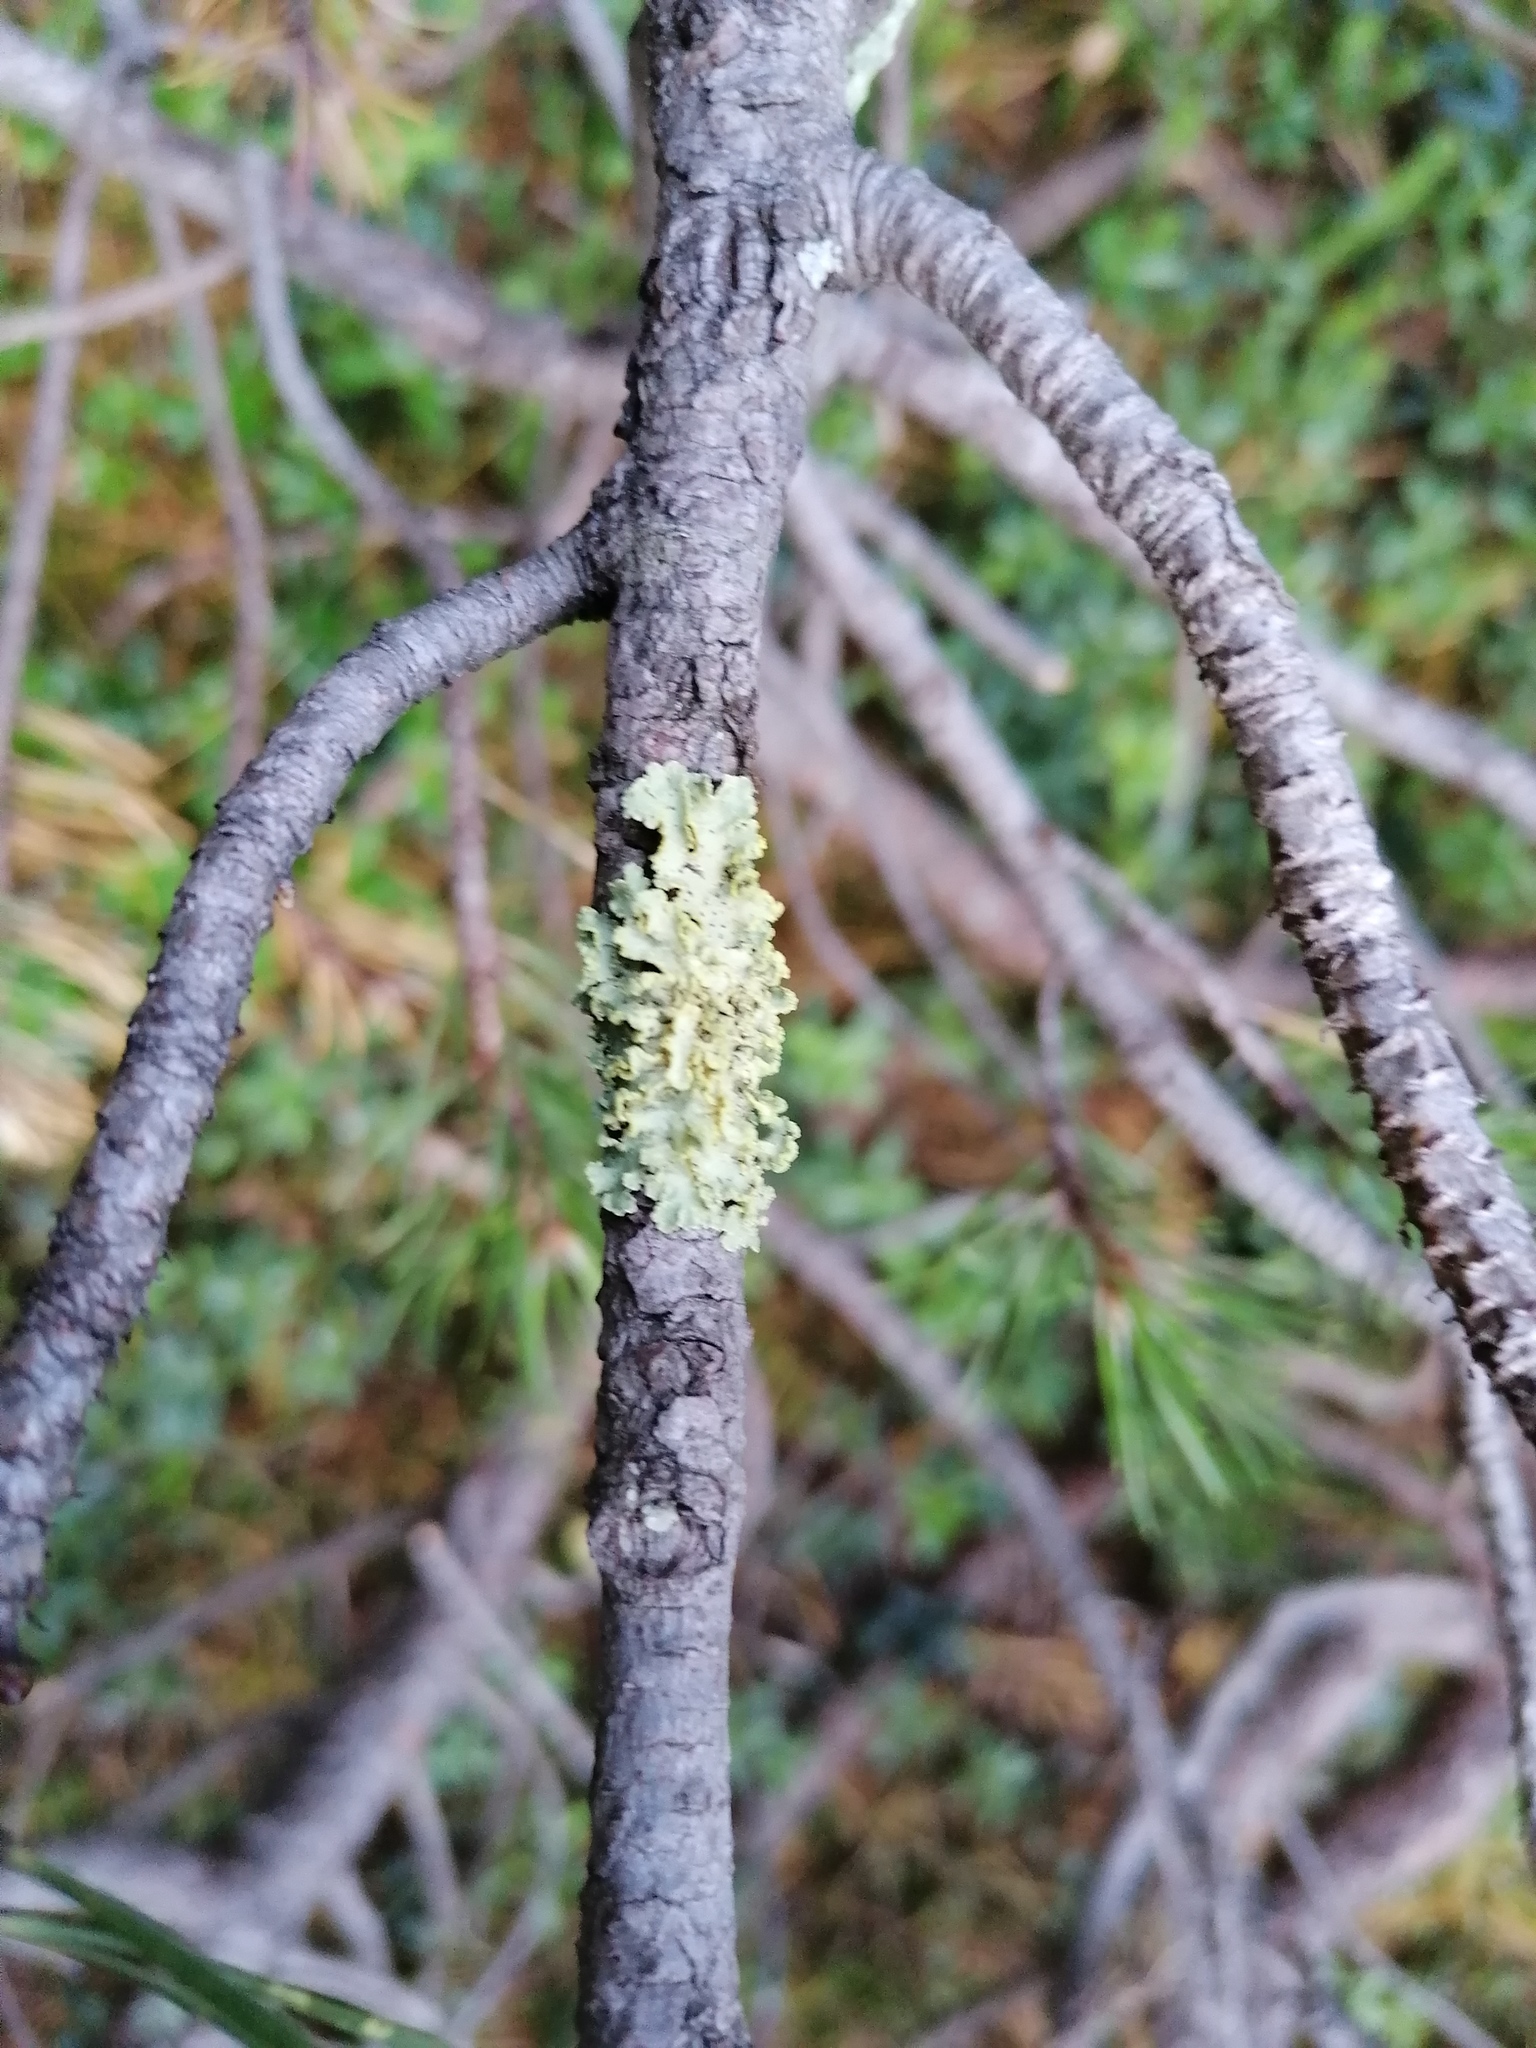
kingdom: Fungi
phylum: Ascomycota
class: Lecanoromycetes
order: Lecanorales
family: Parmeliaceae
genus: Vulpicida
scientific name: Vulpicida pinastri
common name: Powdered sunshine lichen
